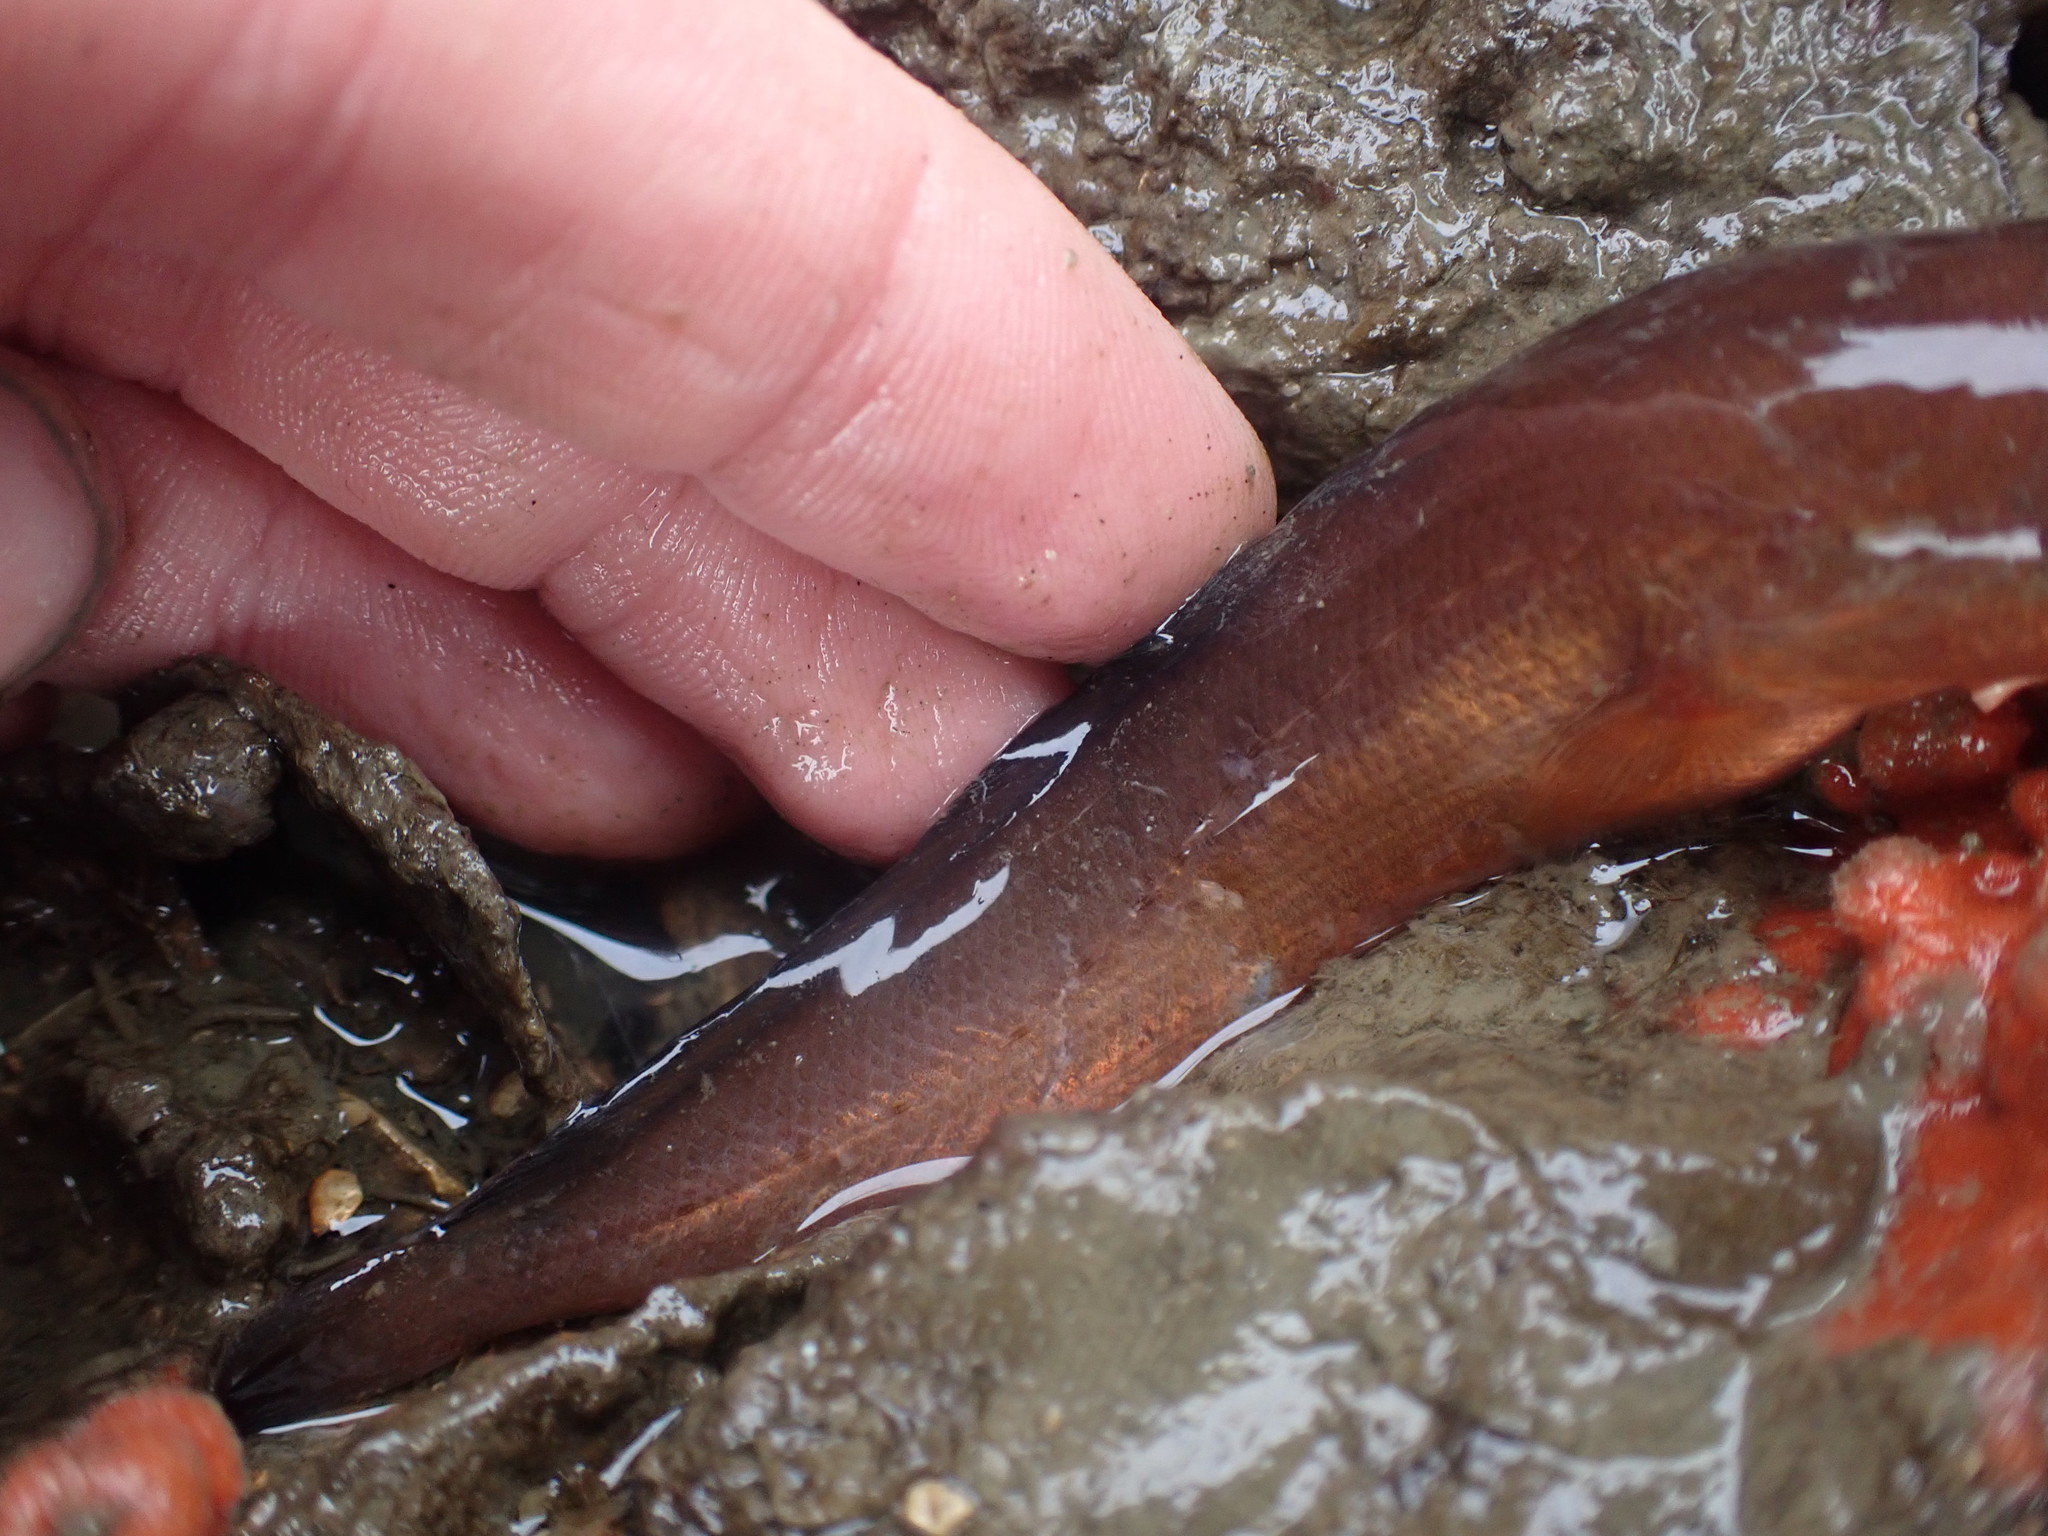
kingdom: Animalia
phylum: Chordata
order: Gadiformes
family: Moridae
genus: Pseudophycis
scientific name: Pseudophycis breviuscula
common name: Northern bastard codling
